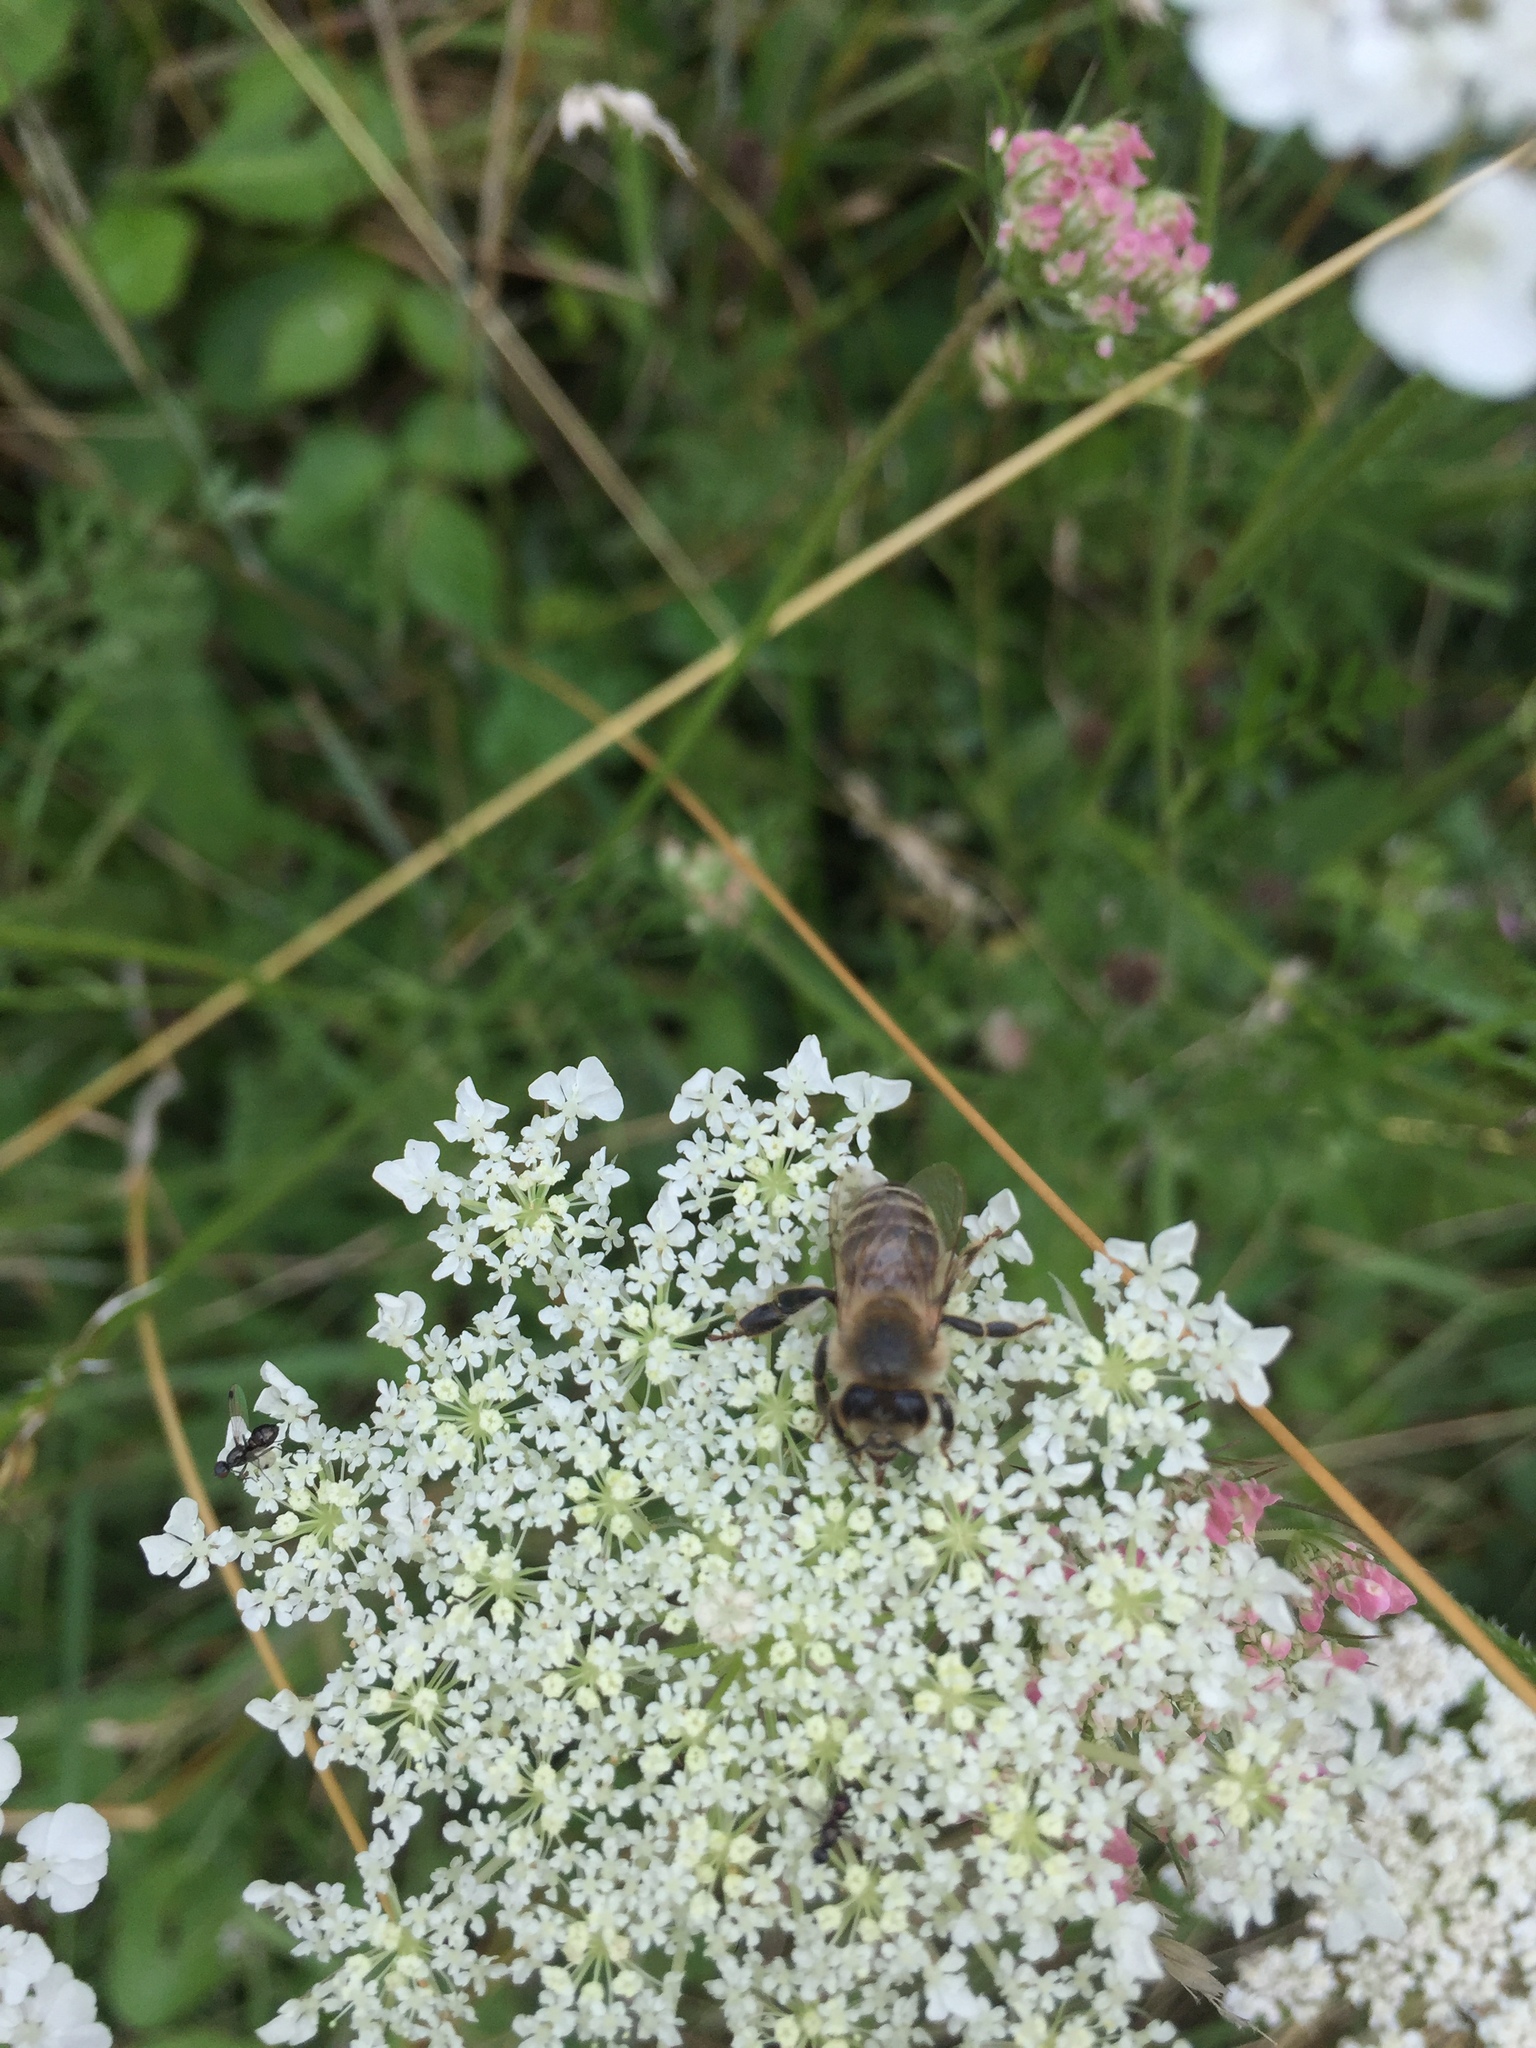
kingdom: Animalia
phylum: Arthropoda
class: Insecta
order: Hymenoptera
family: Apidae
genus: Apis
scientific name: Apis mellifera
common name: Honey bee
